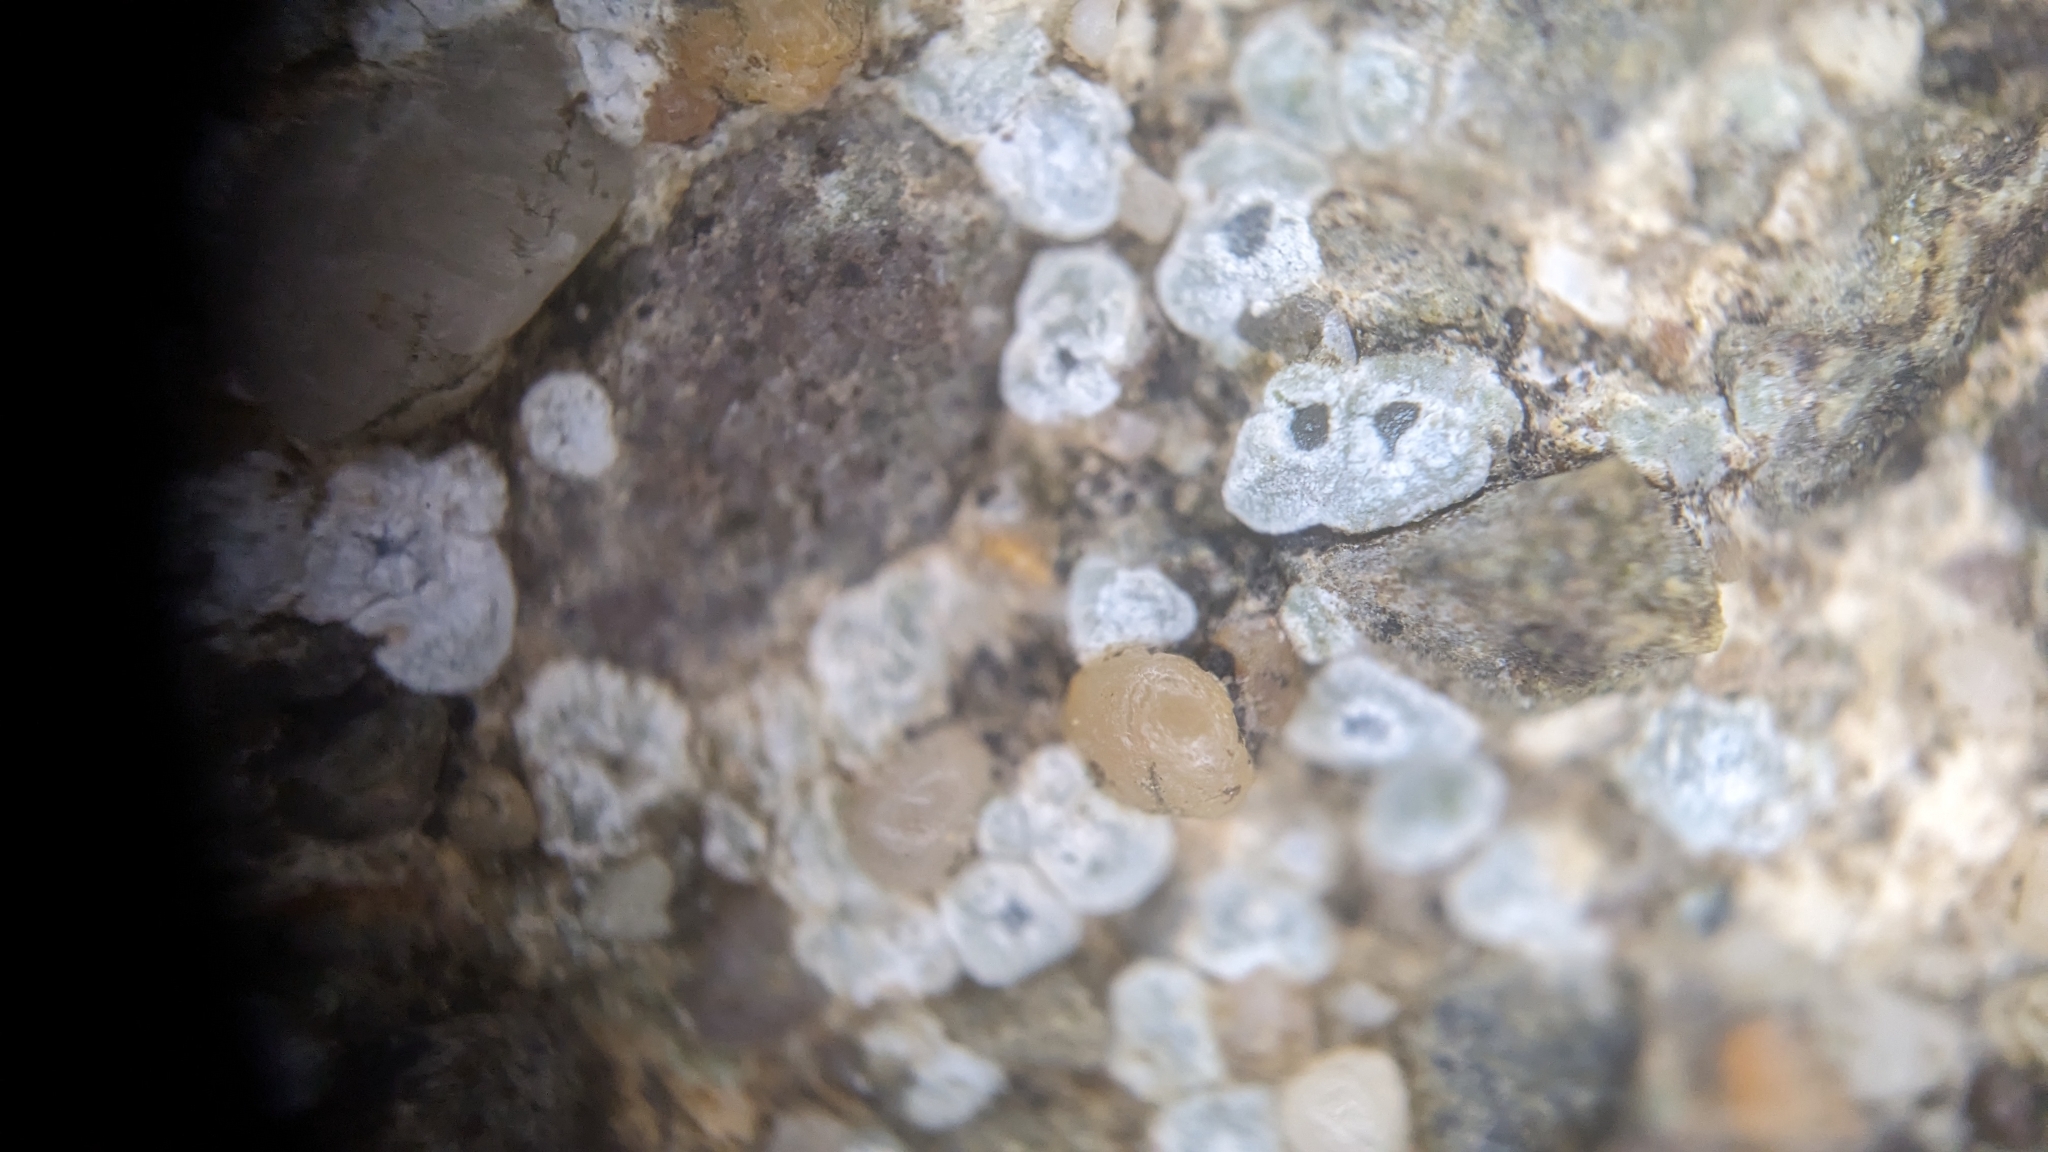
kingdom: Fungi
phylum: Ascomycota
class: Lecanoromycetes
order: Pertusariales
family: Megasporaceae
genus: Circinaria
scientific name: Circinaria contorta
